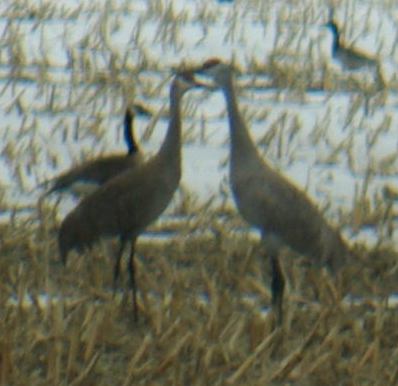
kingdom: Animalia
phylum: Chordata
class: Aves
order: Gruiformes
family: Gruidae
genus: Grus
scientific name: Grus canadensis
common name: Sandhill crane
